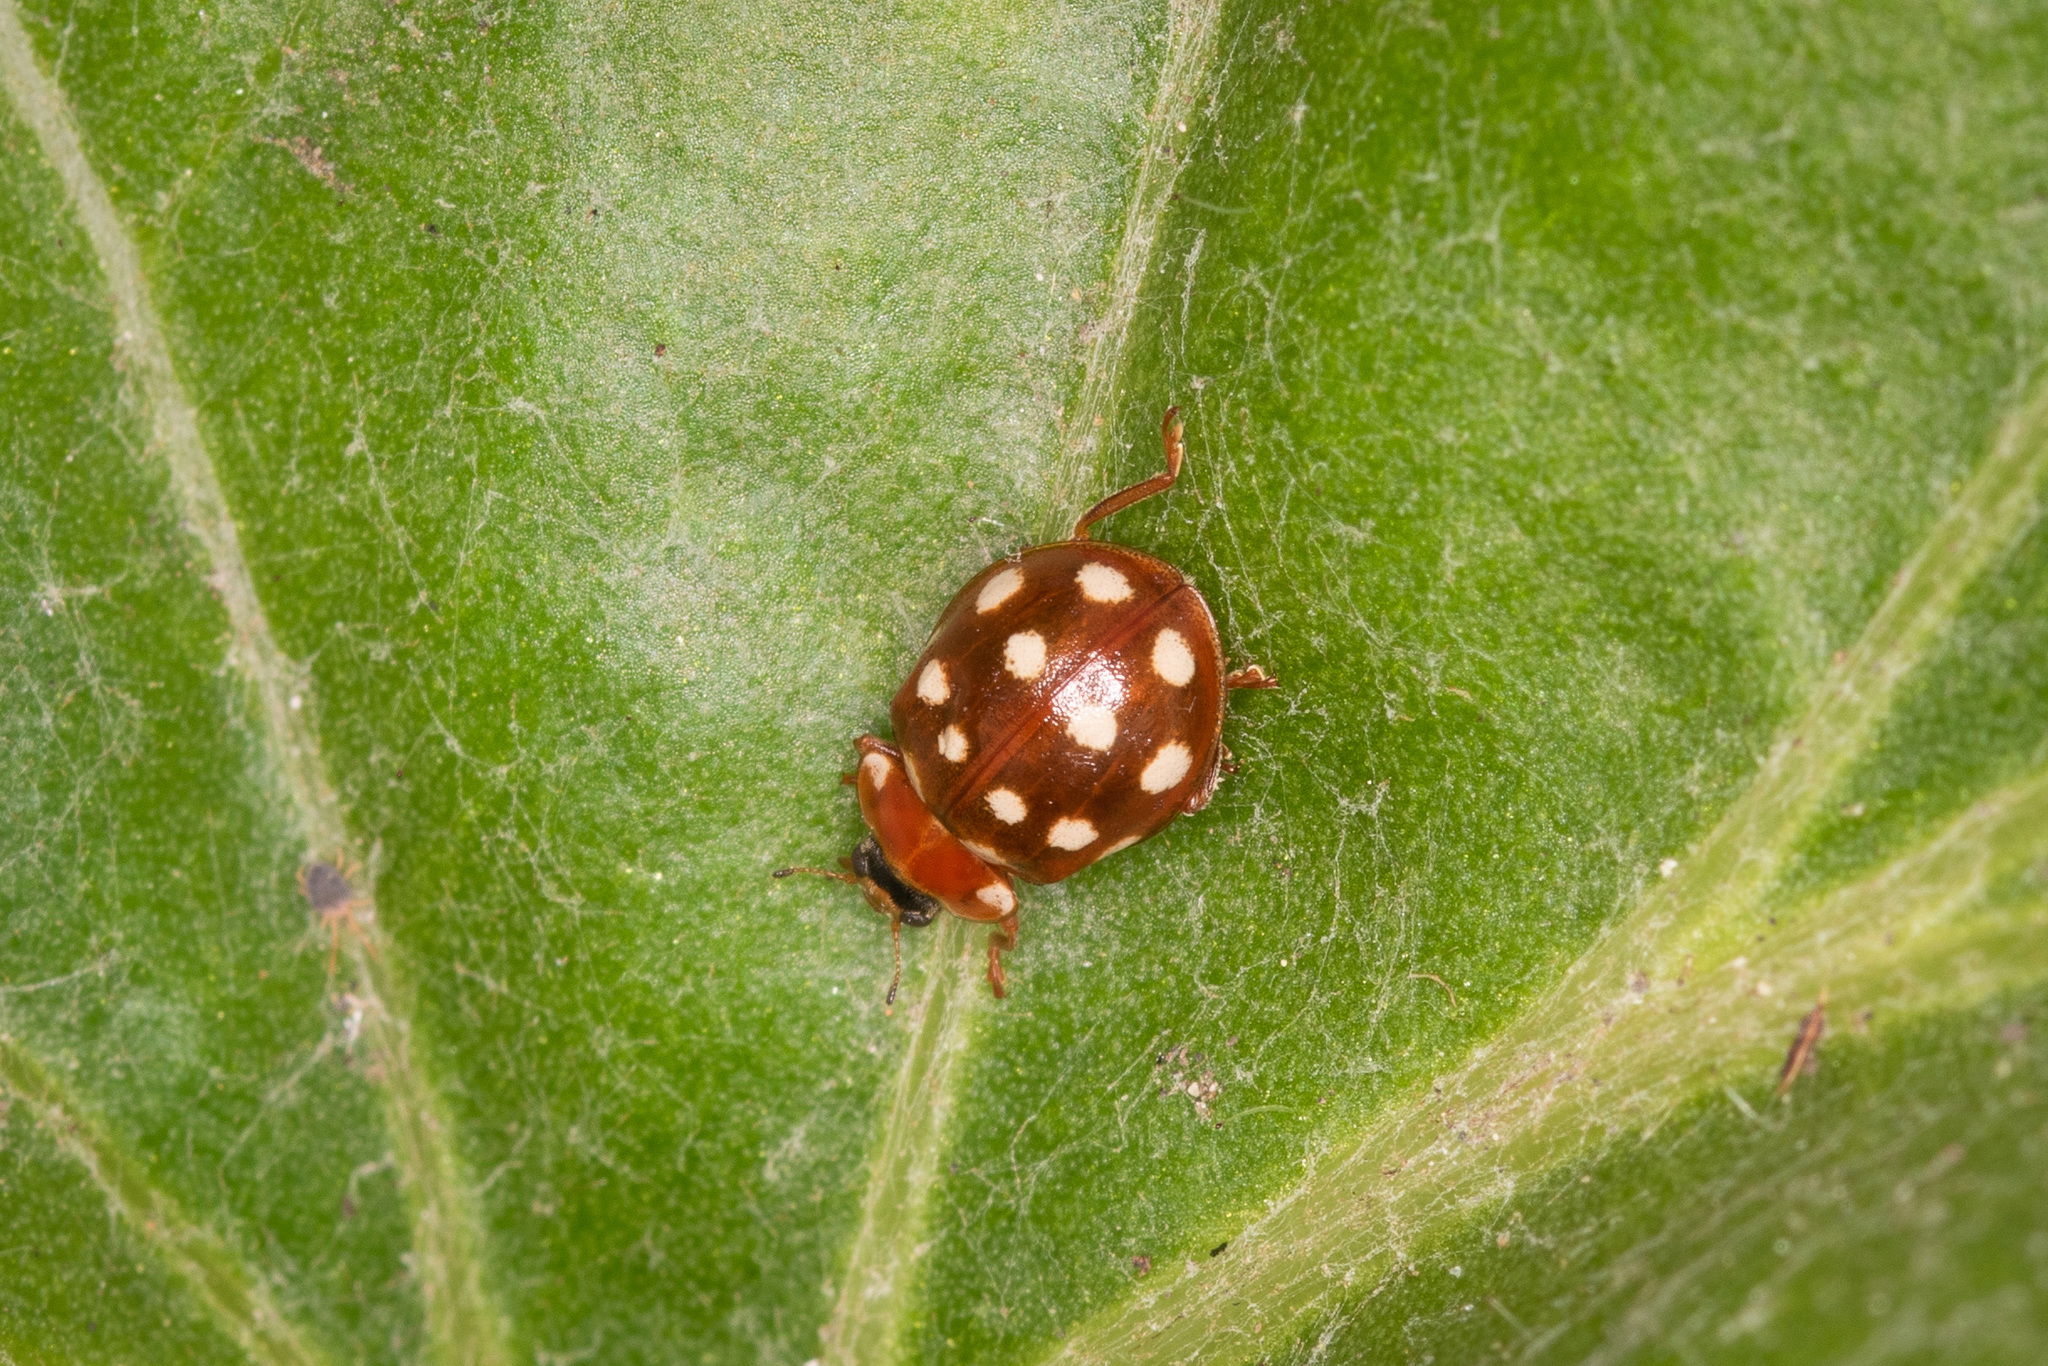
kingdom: Animalia
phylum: Arthropoda
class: Insecta
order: Coleoptera
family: Coccinellidae
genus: Calvia
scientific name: Calvia quatuordecimguttata
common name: Cream-spot ladybird
